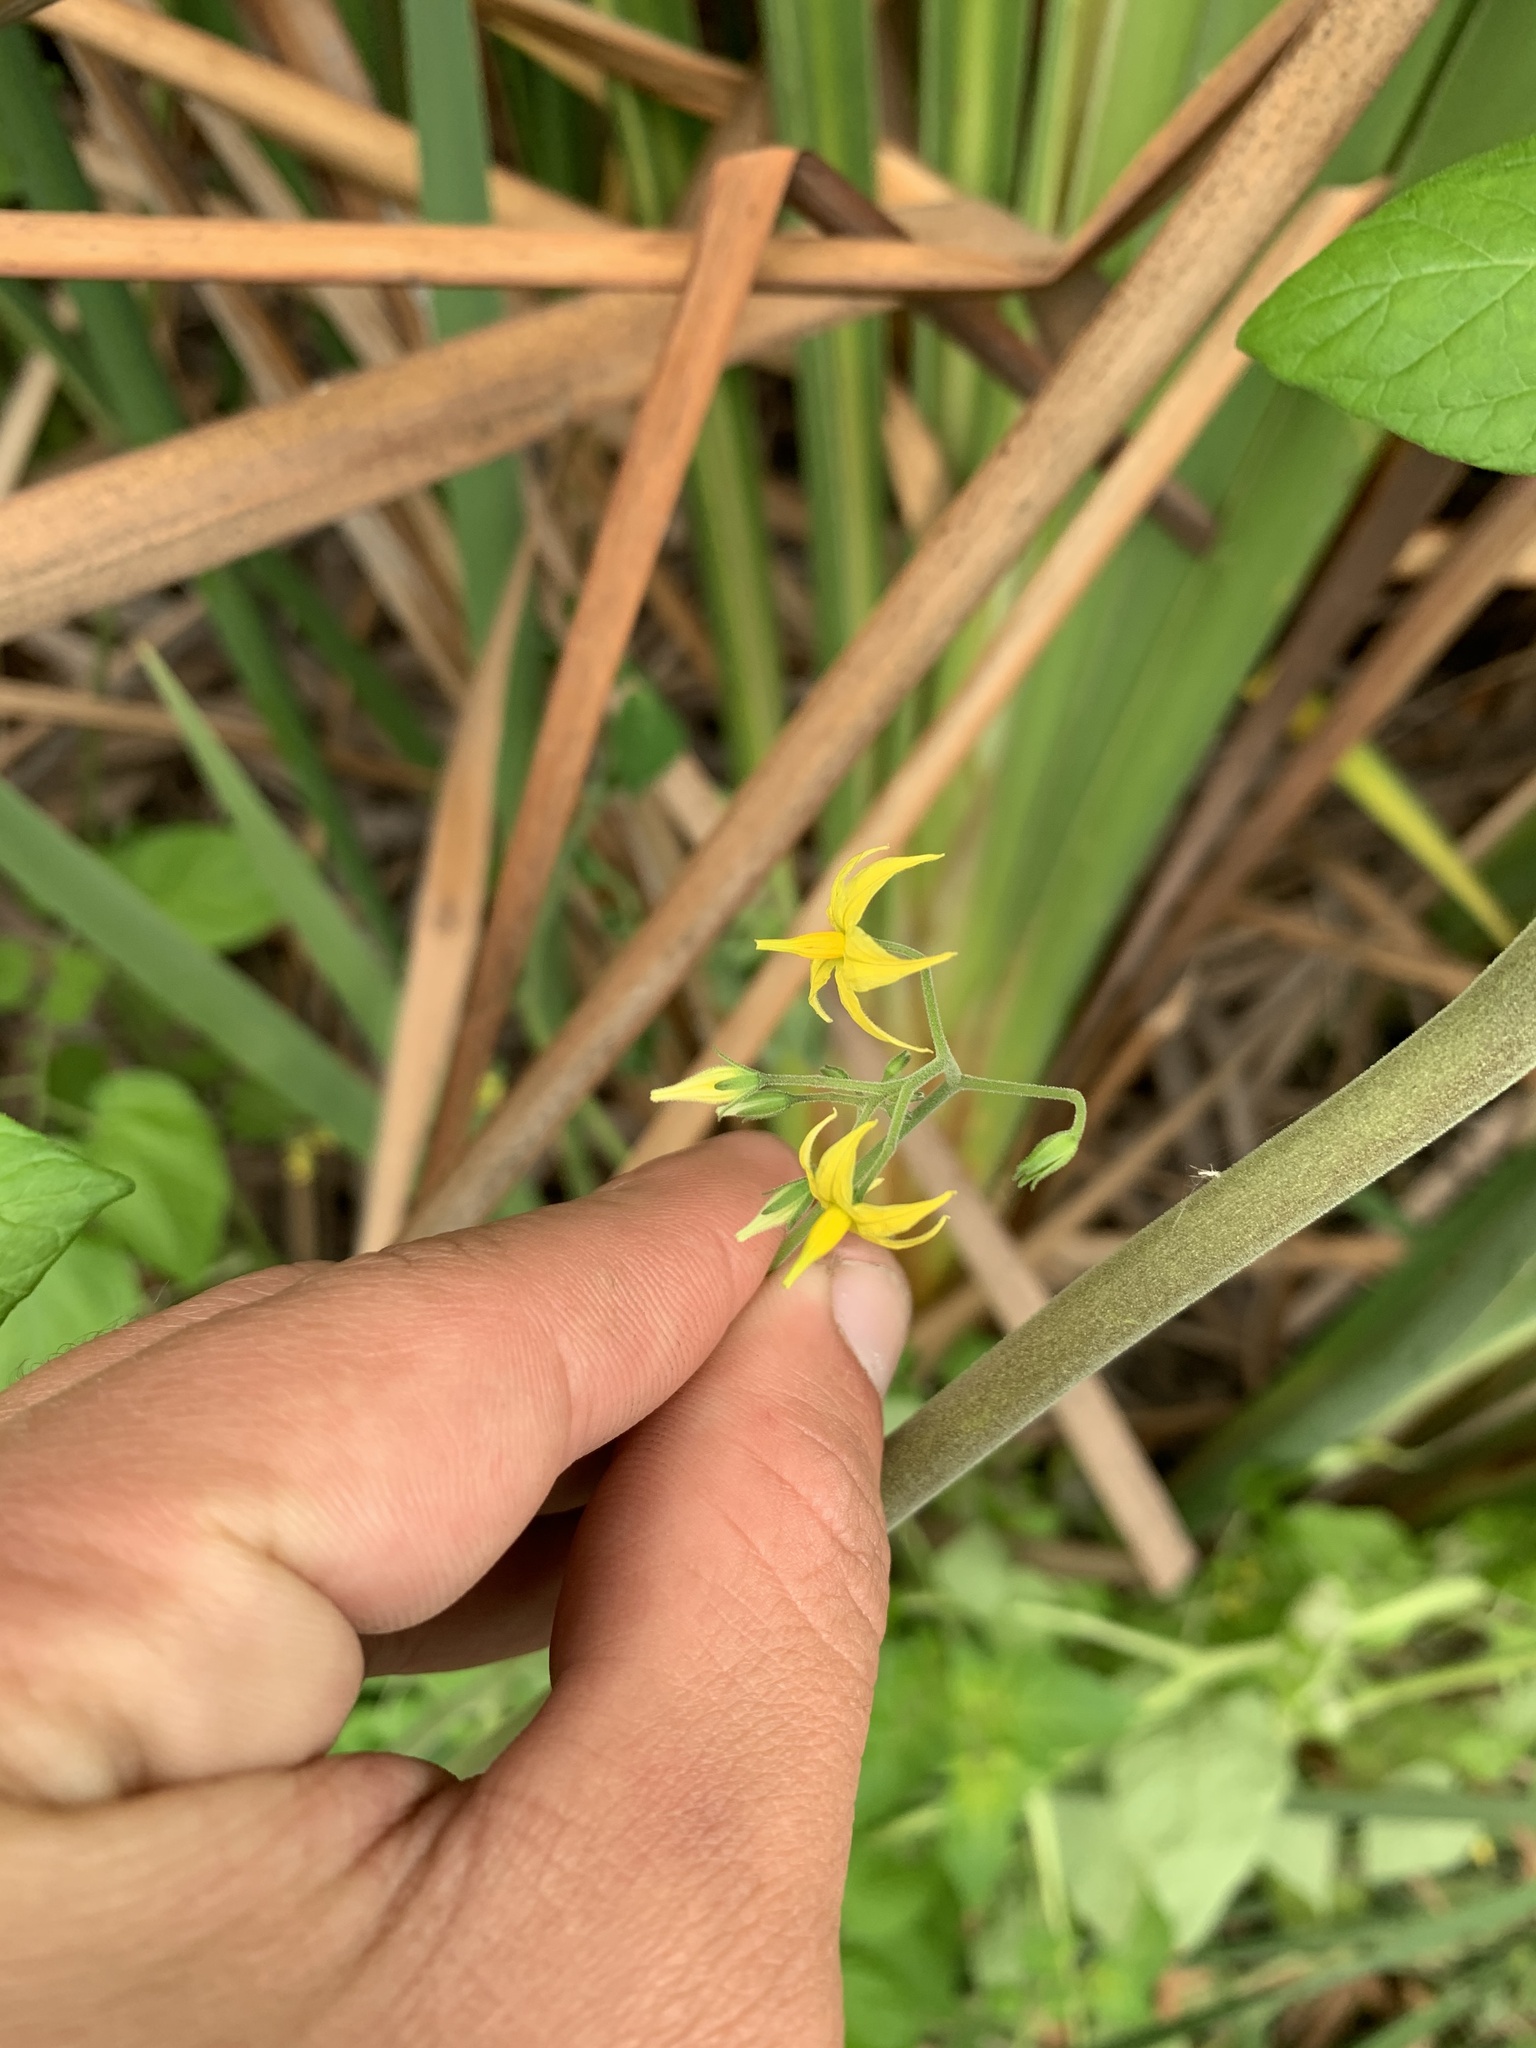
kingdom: Plantae
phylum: Tracheophyta
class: Magnoliopsida
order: Solanales
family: Solanaceae
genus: Solanum
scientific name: Solanum pimpinellifolium
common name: Currant-tomato
